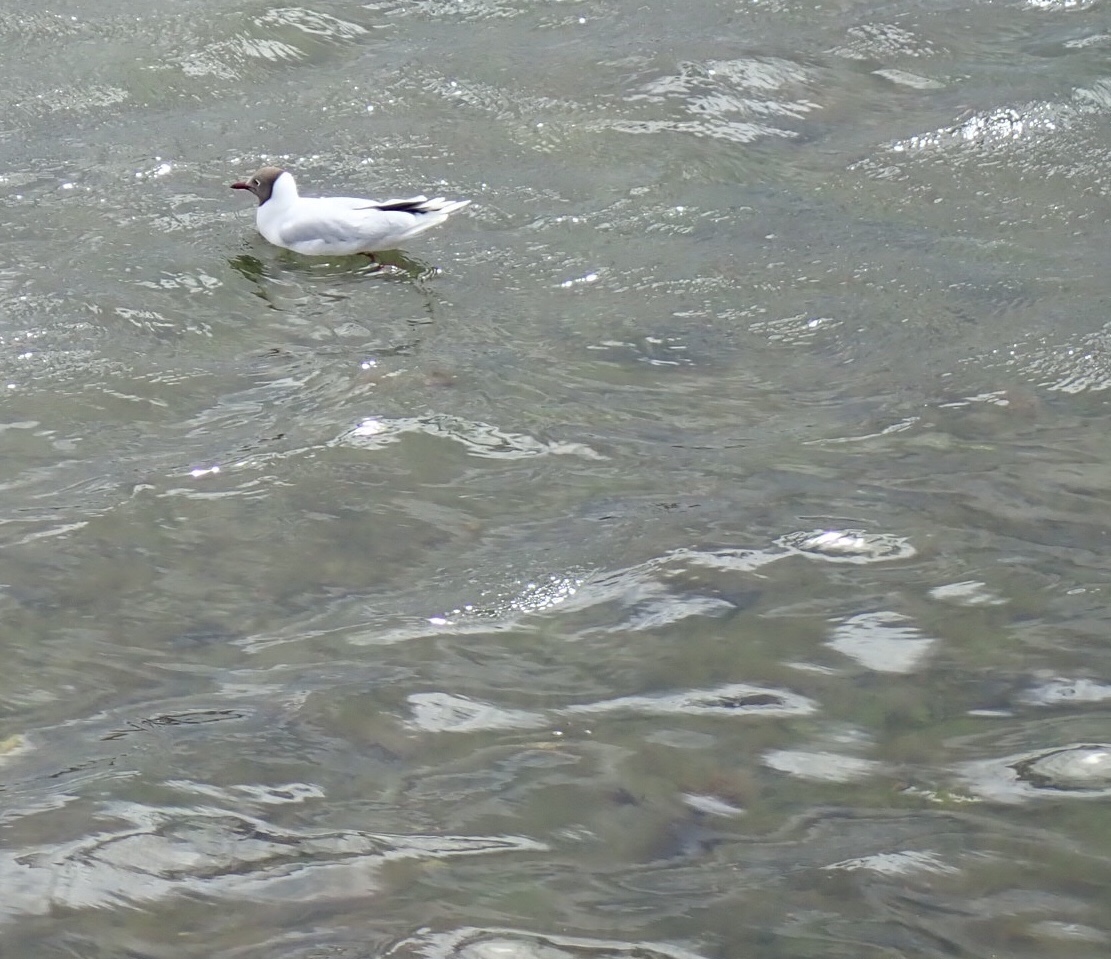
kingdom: Animalia
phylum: Chordata
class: Aves
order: Charadriiformes
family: Laridae
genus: Chroicocephalus
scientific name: Chroicocephalus maculipennis
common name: Brown-hooded gull
